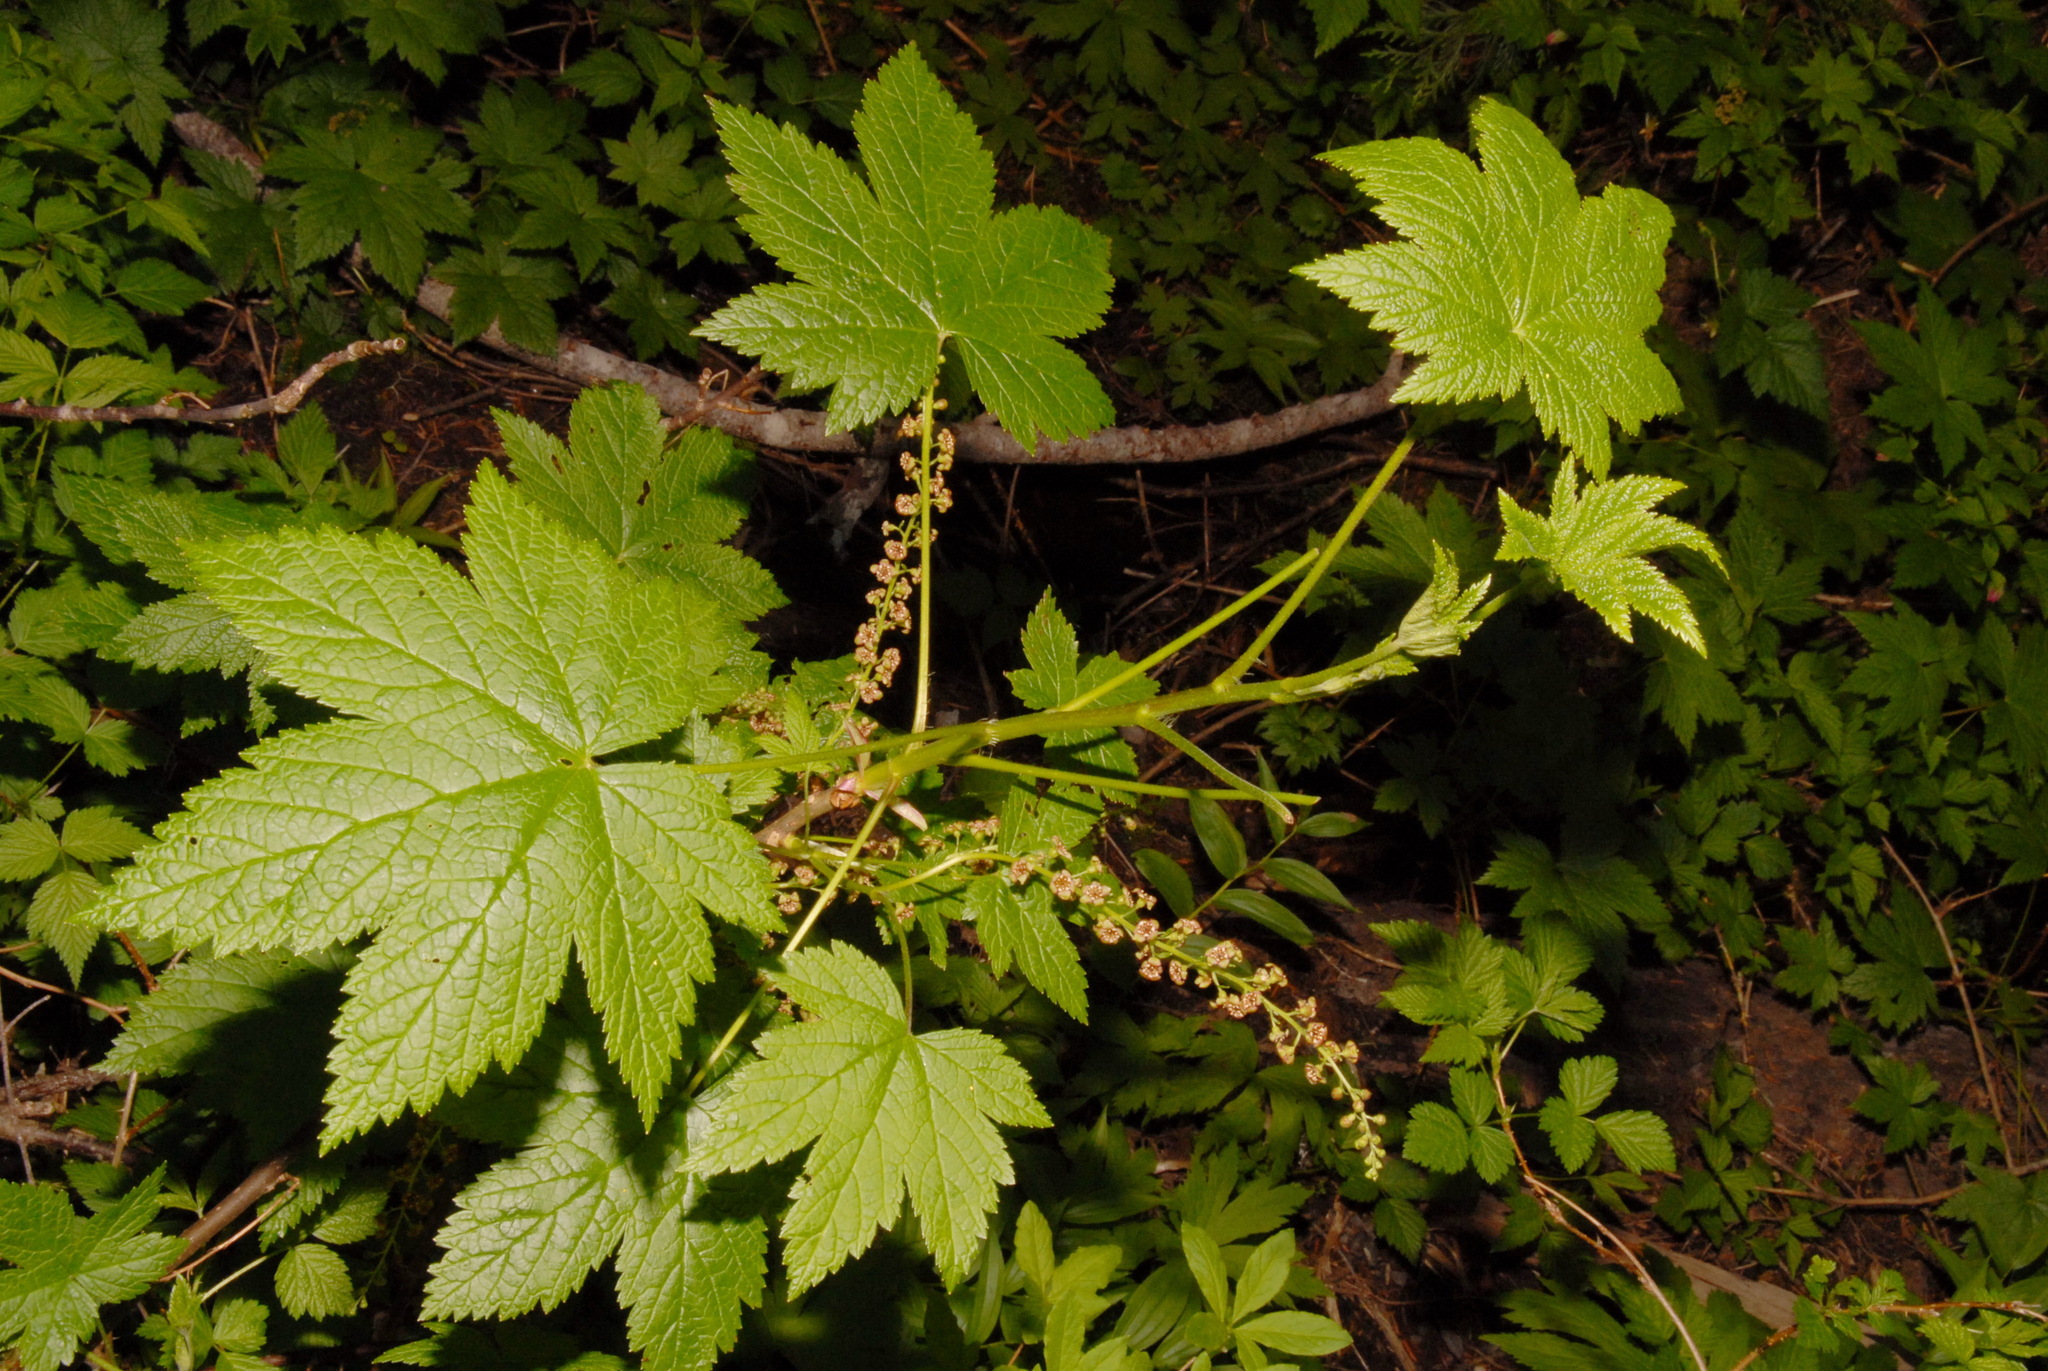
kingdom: Plantae
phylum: Tracheophyta
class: Magnoliopsida
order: Saxifragales
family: Grossulariaceae
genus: Ribes
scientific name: Ribes bracteosum
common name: California black currant
